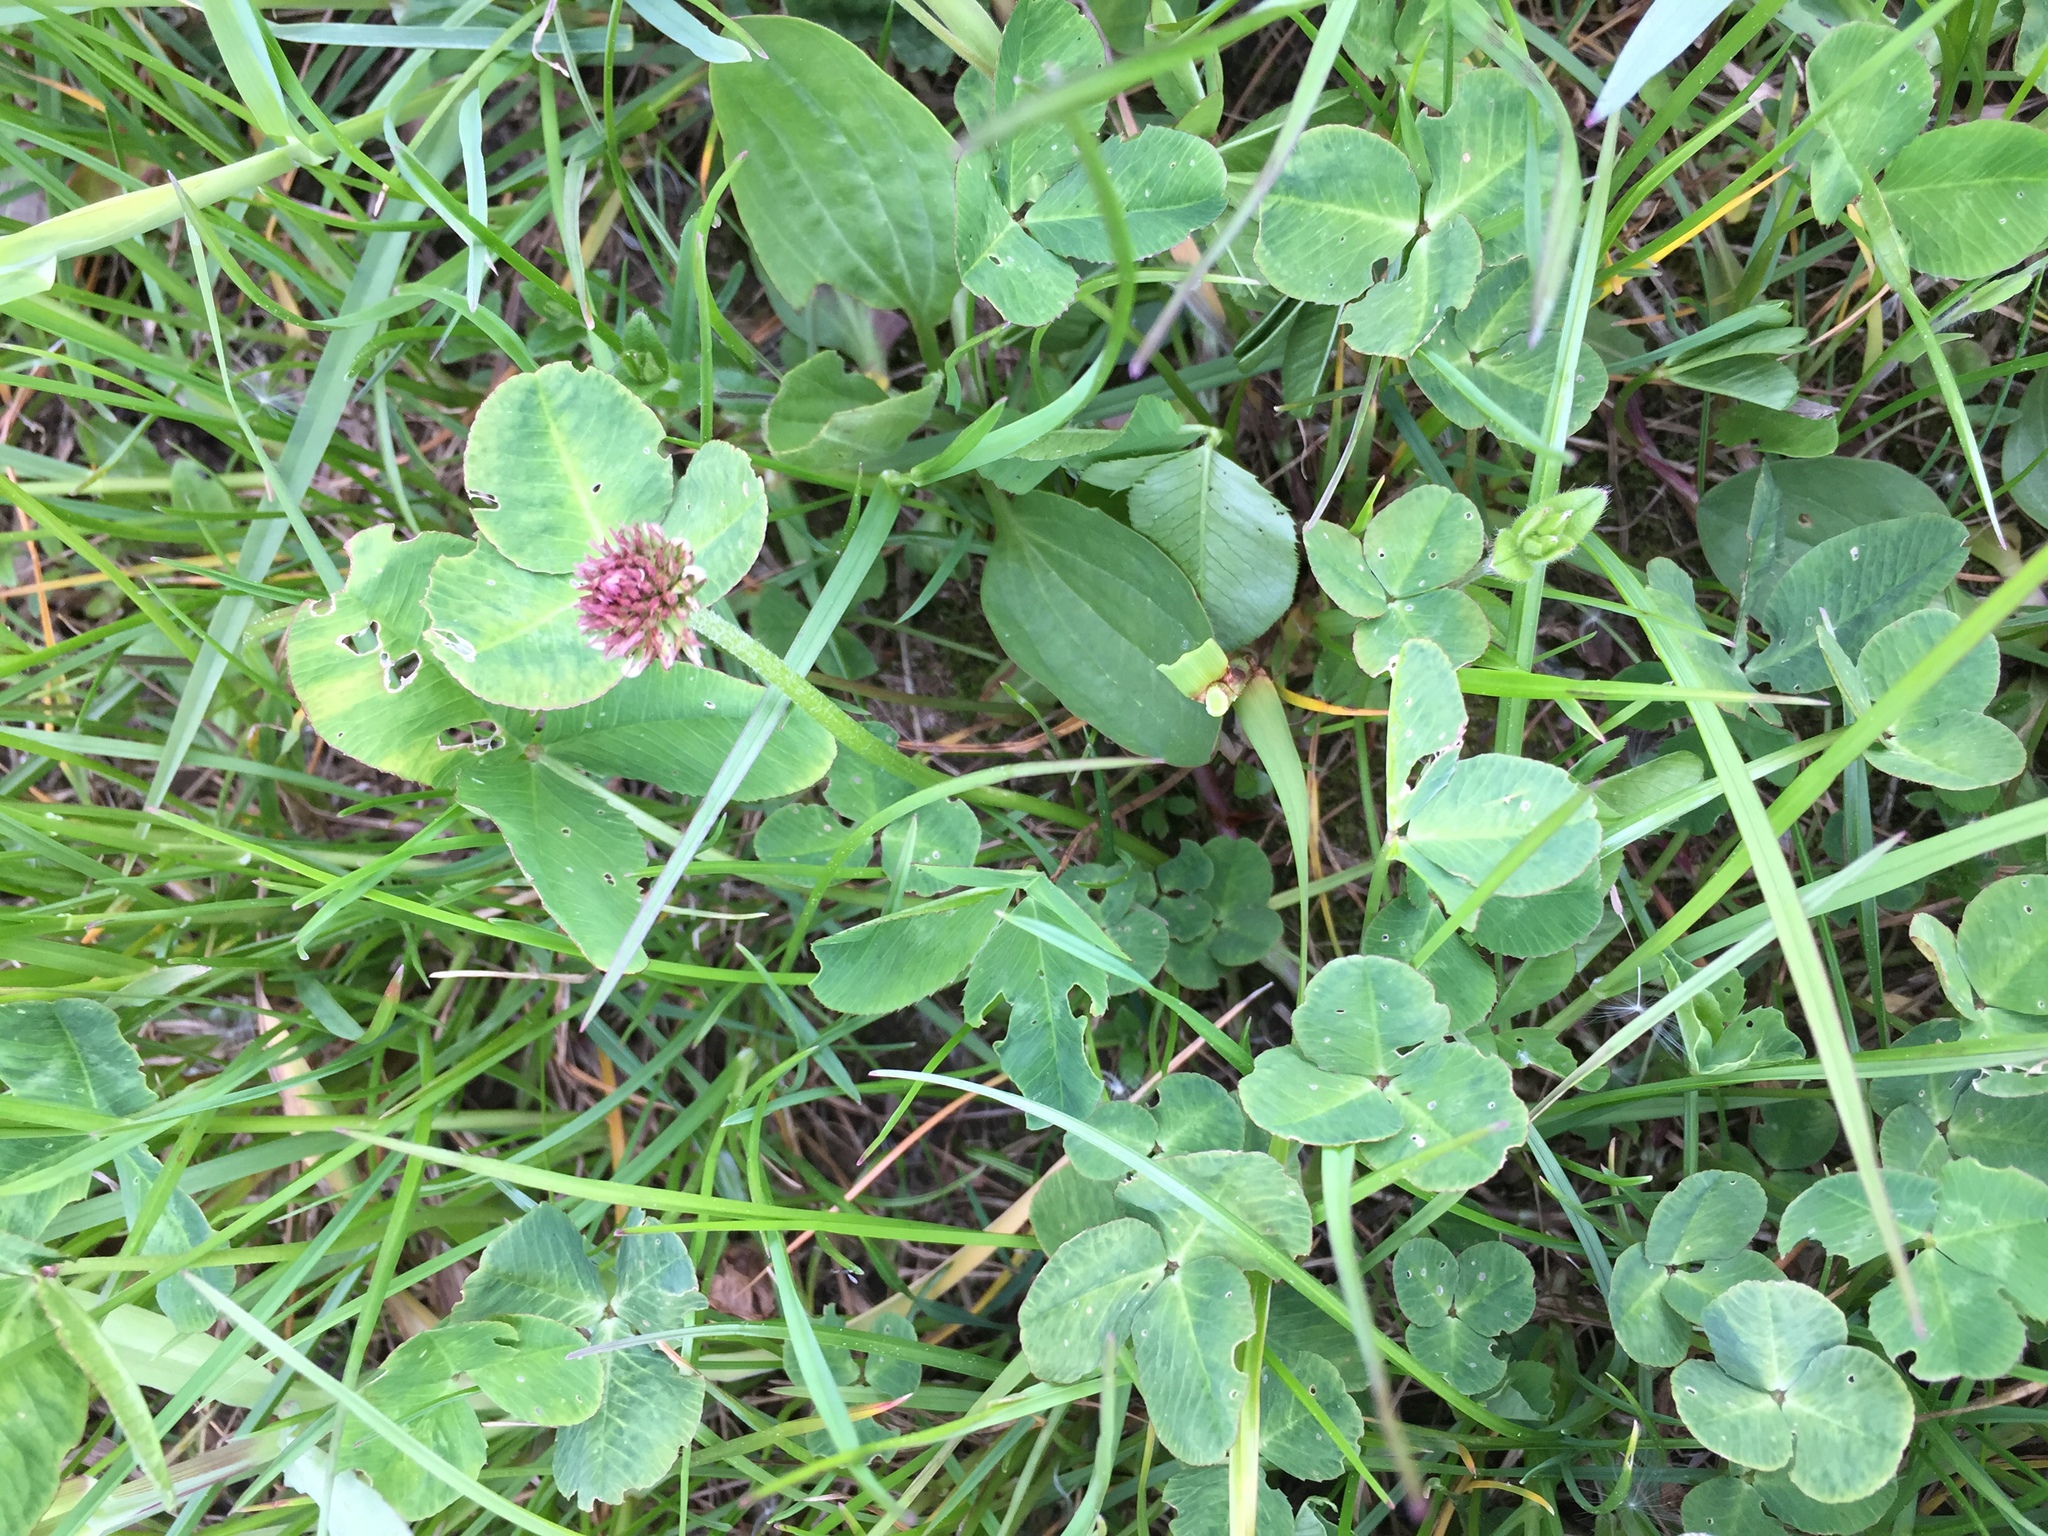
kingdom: Plantae
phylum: Tracheophyta
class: Magnoliopsida
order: Fabales
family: Fabaceae
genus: Trifolium
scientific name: Trifolium repens
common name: White clover
